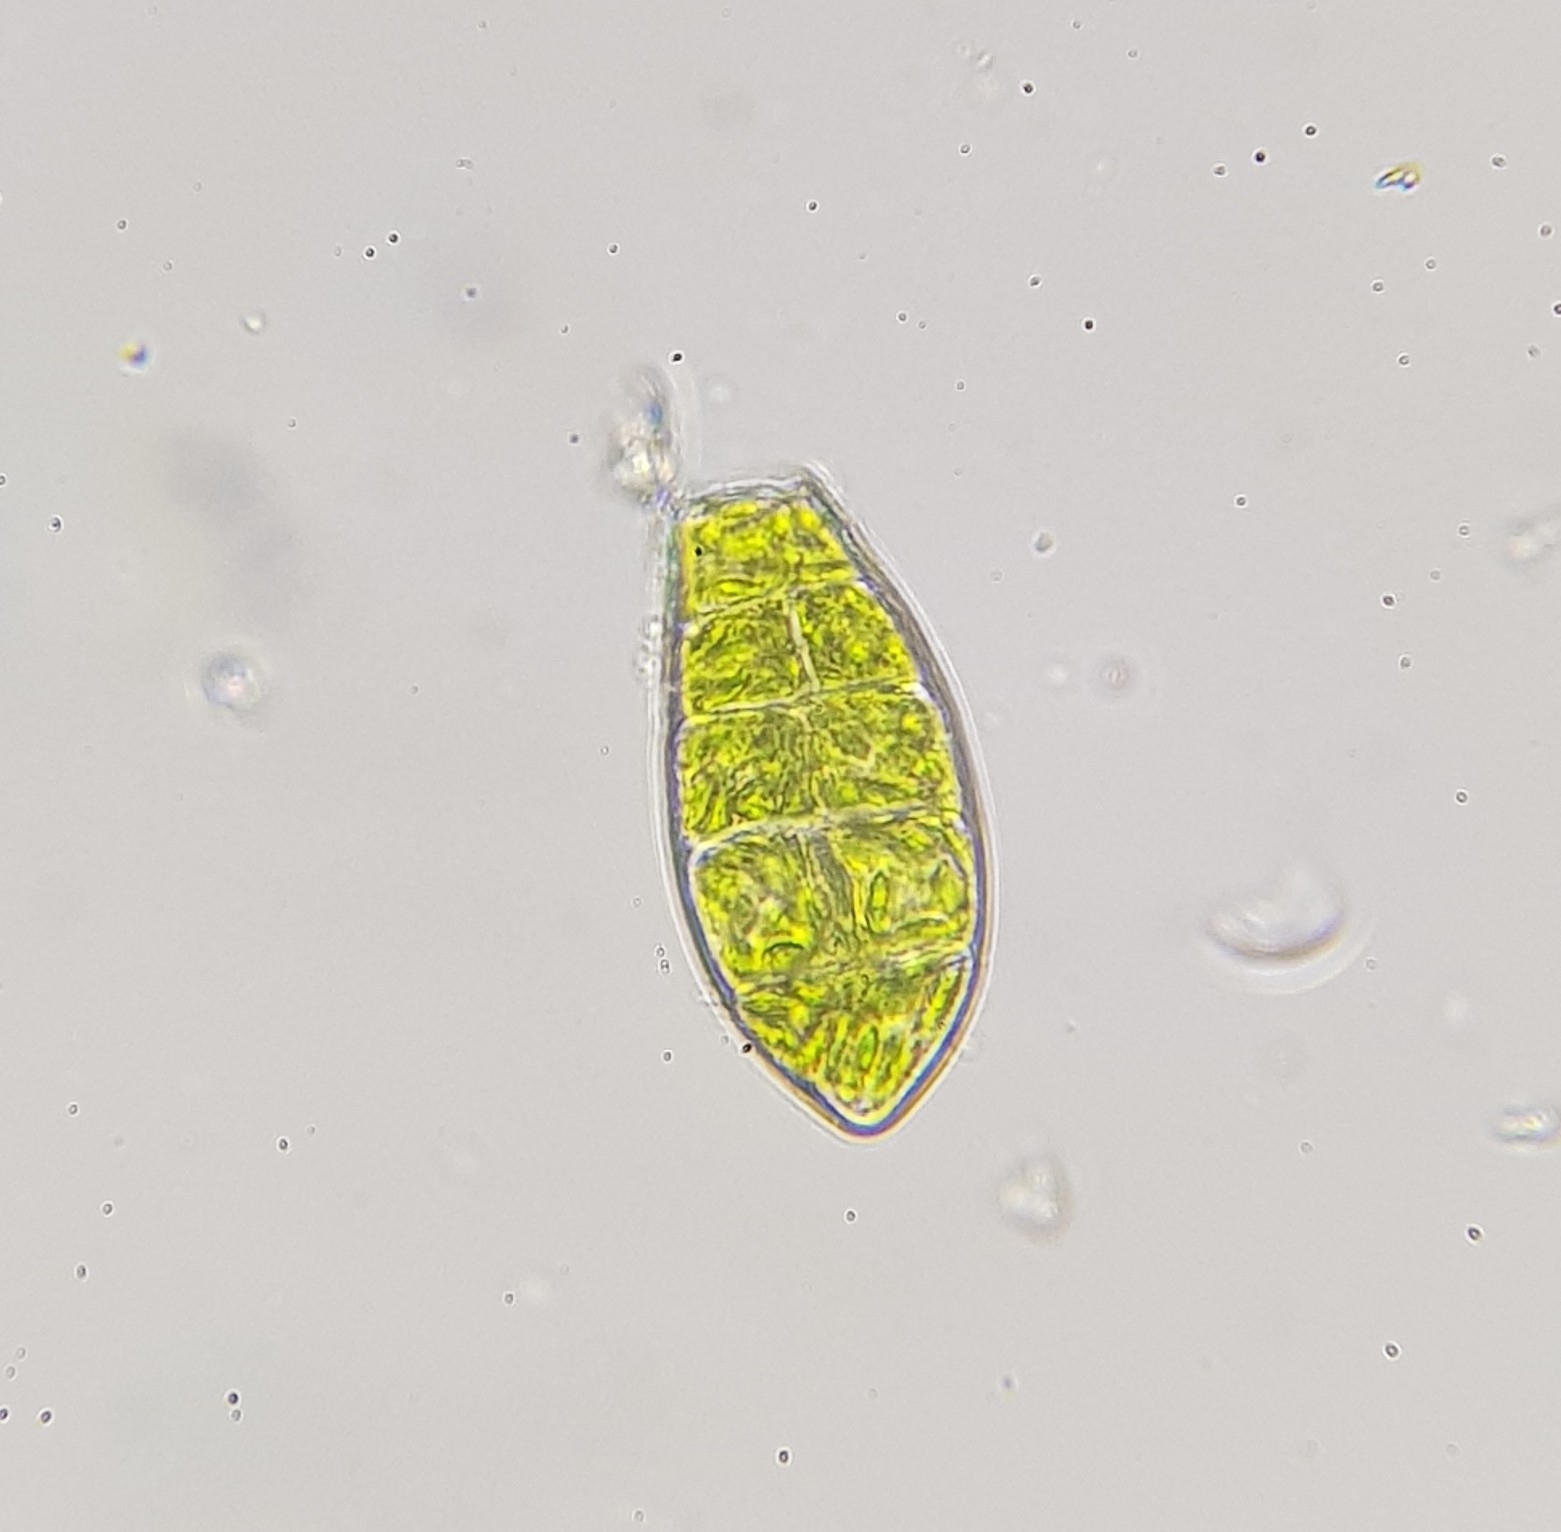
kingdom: Plantae
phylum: Bryophyta
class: Bryopsida
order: Orthotrichales
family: Orthotrichaceae
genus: Zygodon
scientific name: Zygodon viridissimus
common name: Green yoke moss
